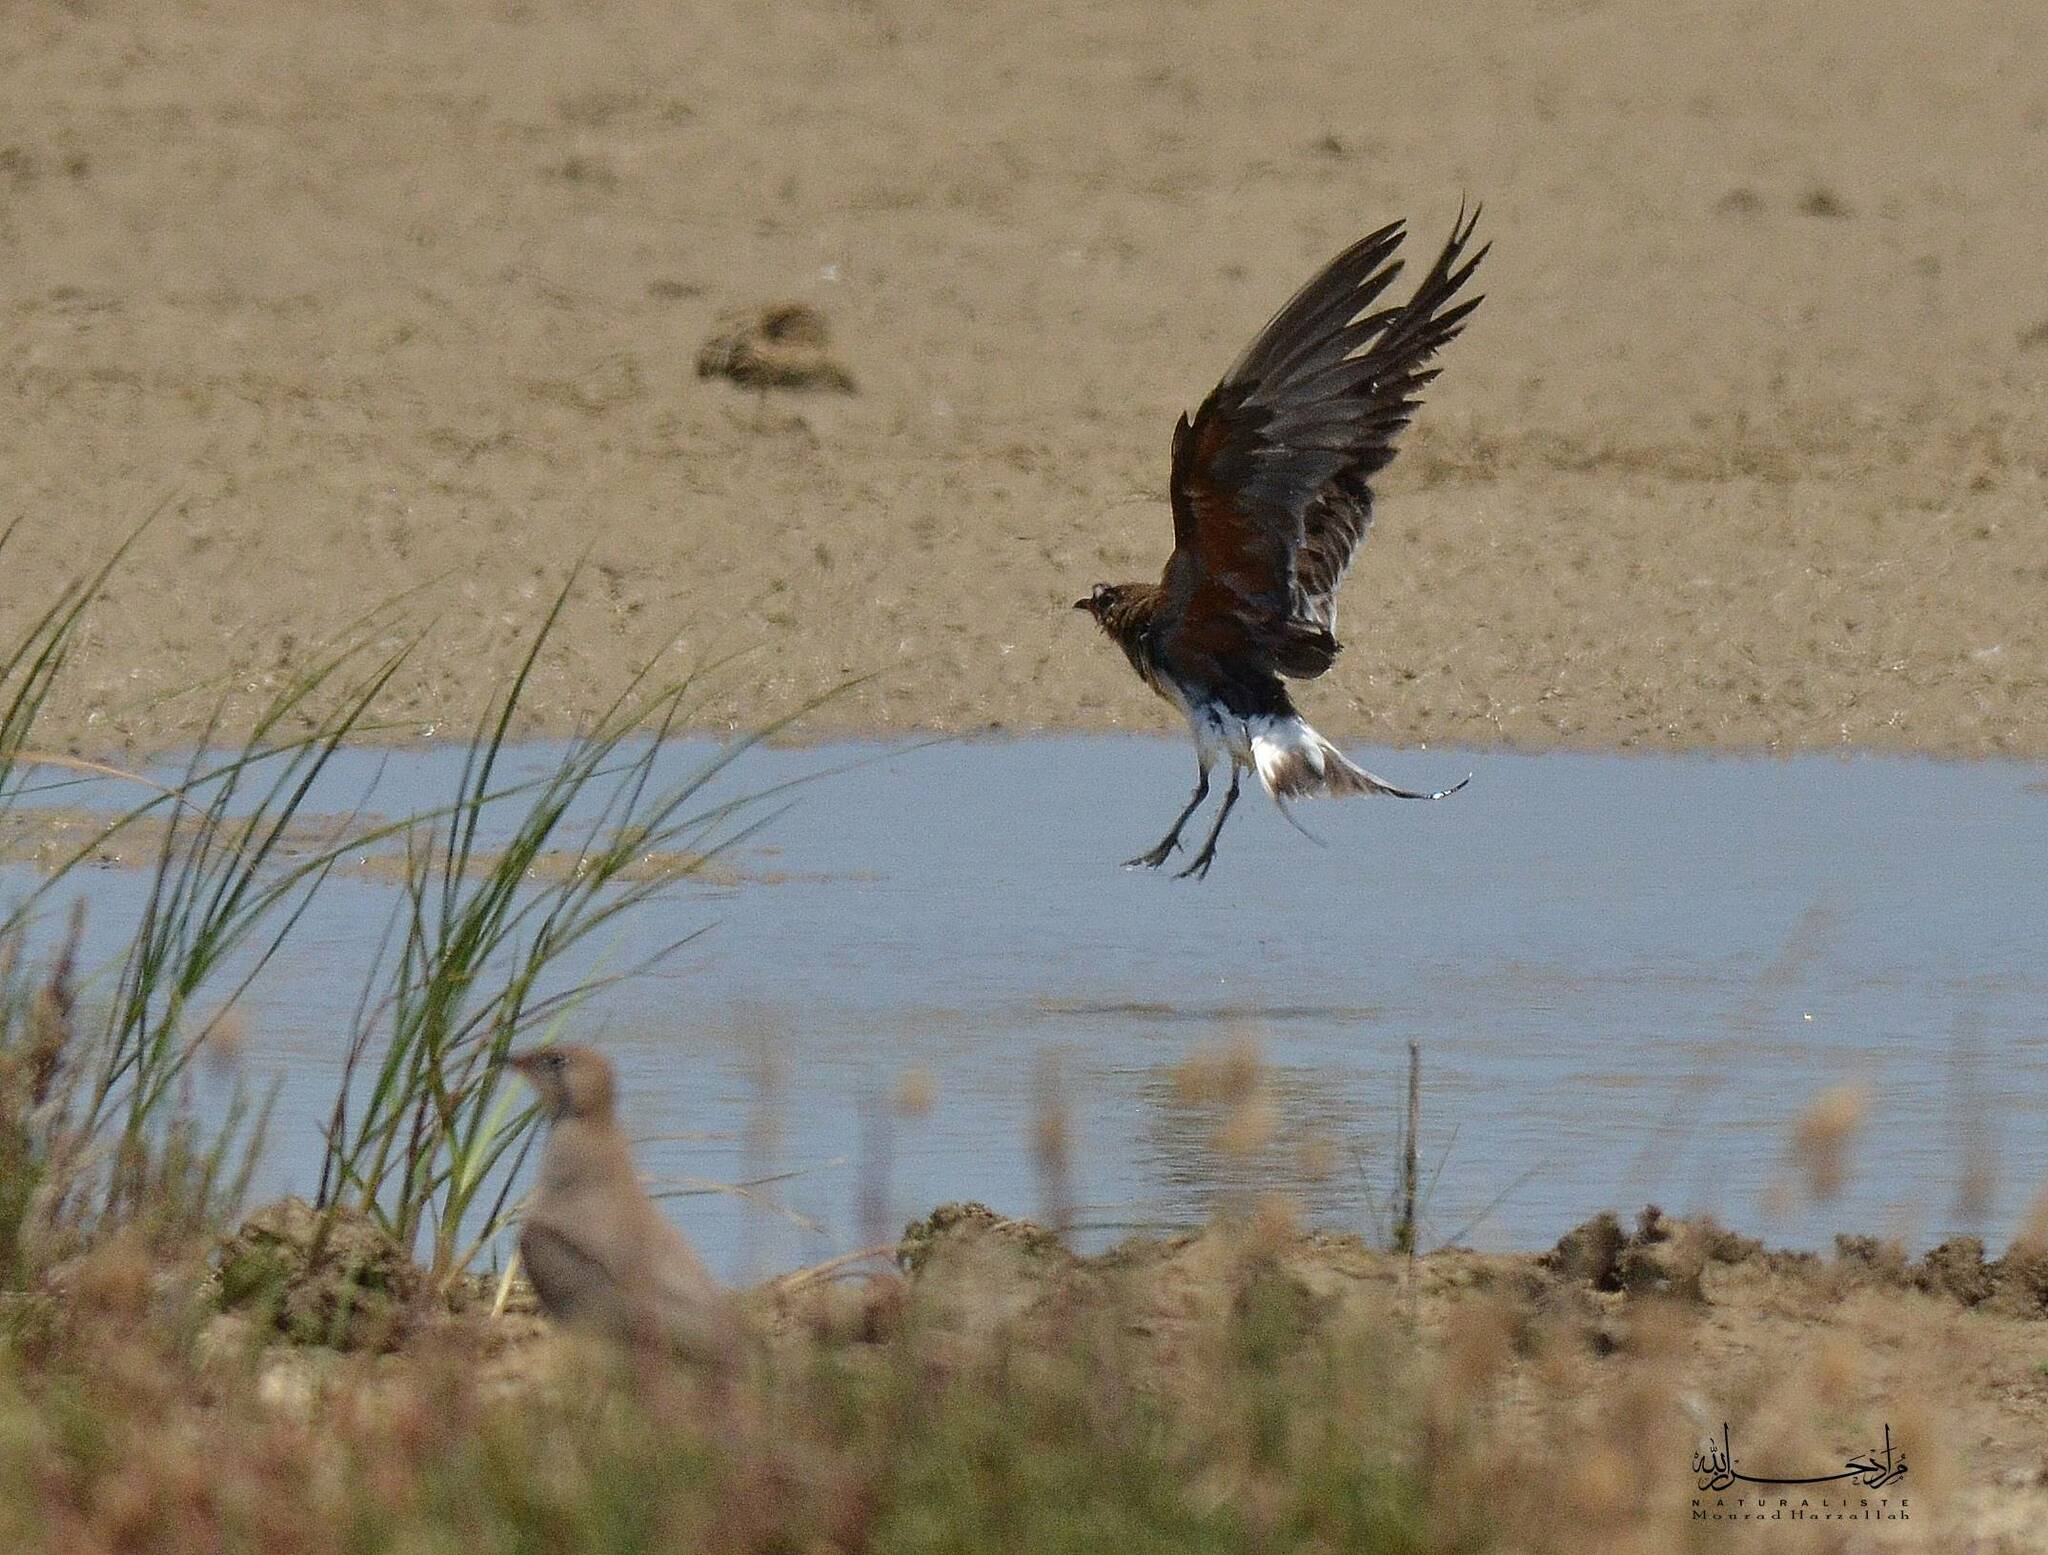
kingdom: Animalia
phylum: Chordata
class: Aves
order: Charadriiformes
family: Glareolidae
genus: Glareola
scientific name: Glareola pratincola
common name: Collared pratincole
